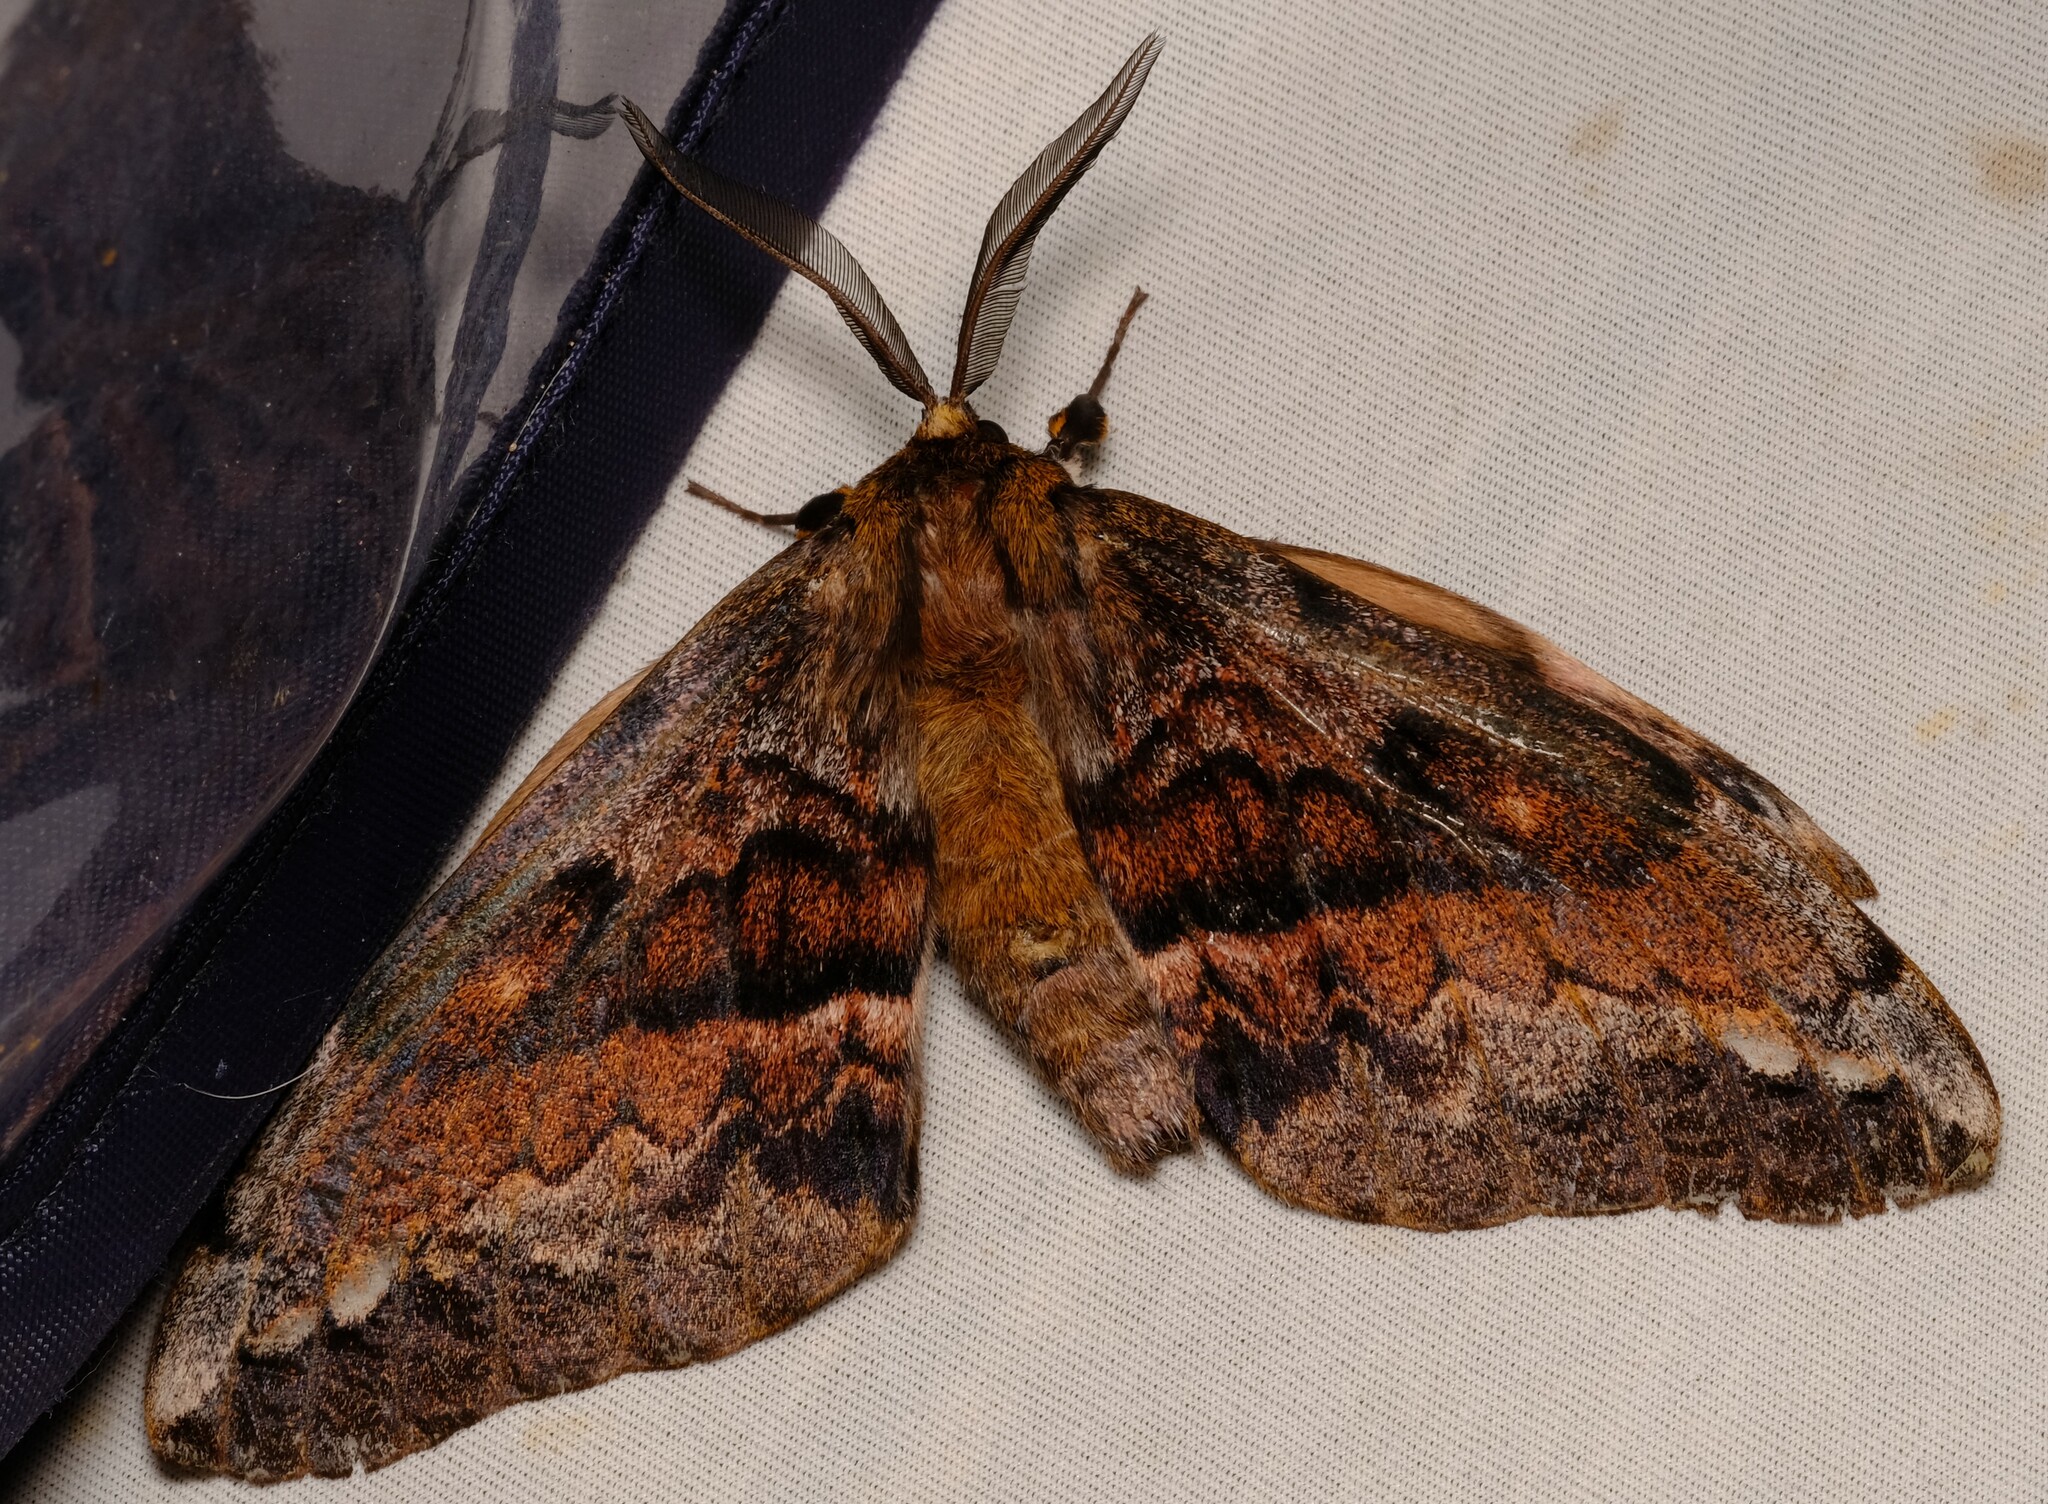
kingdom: Animalia
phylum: Arthropoda
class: Insecta
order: Lepidoptera
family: Anthelidae
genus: Chelepteryx
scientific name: Chelepteryx collesi
